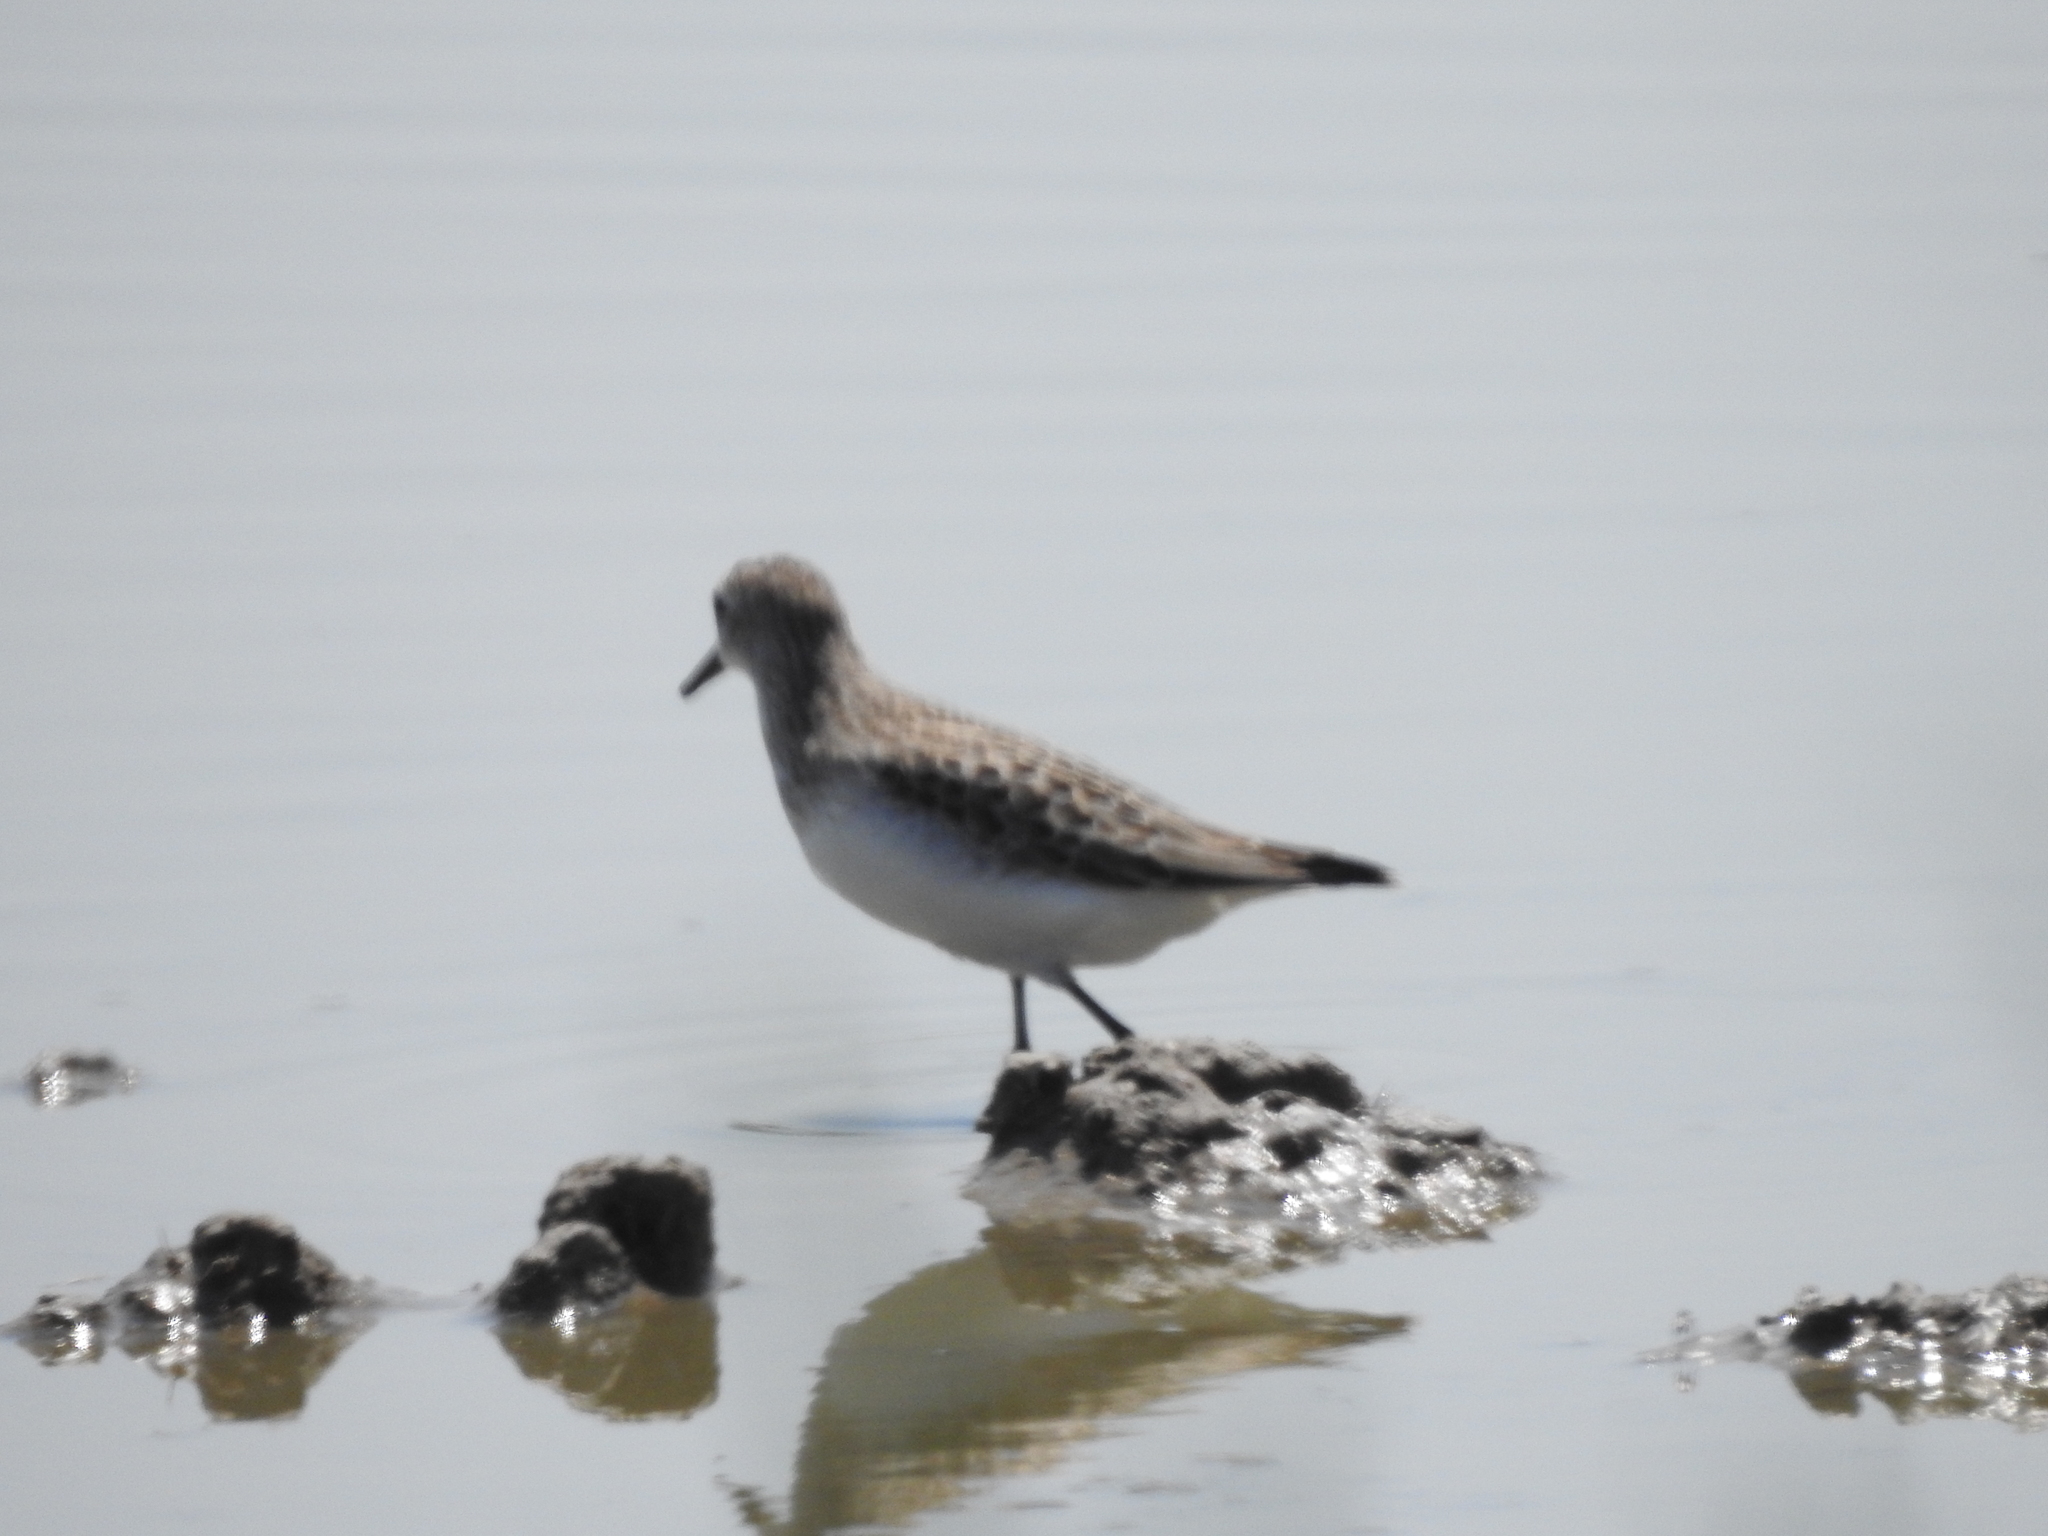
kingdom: Animalia
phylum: Chordata
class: Aves
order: Charadriiformes
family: Scolopacidae
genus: Calidris
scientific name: Calidris pusilla
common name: Semipalmated sandpiper
